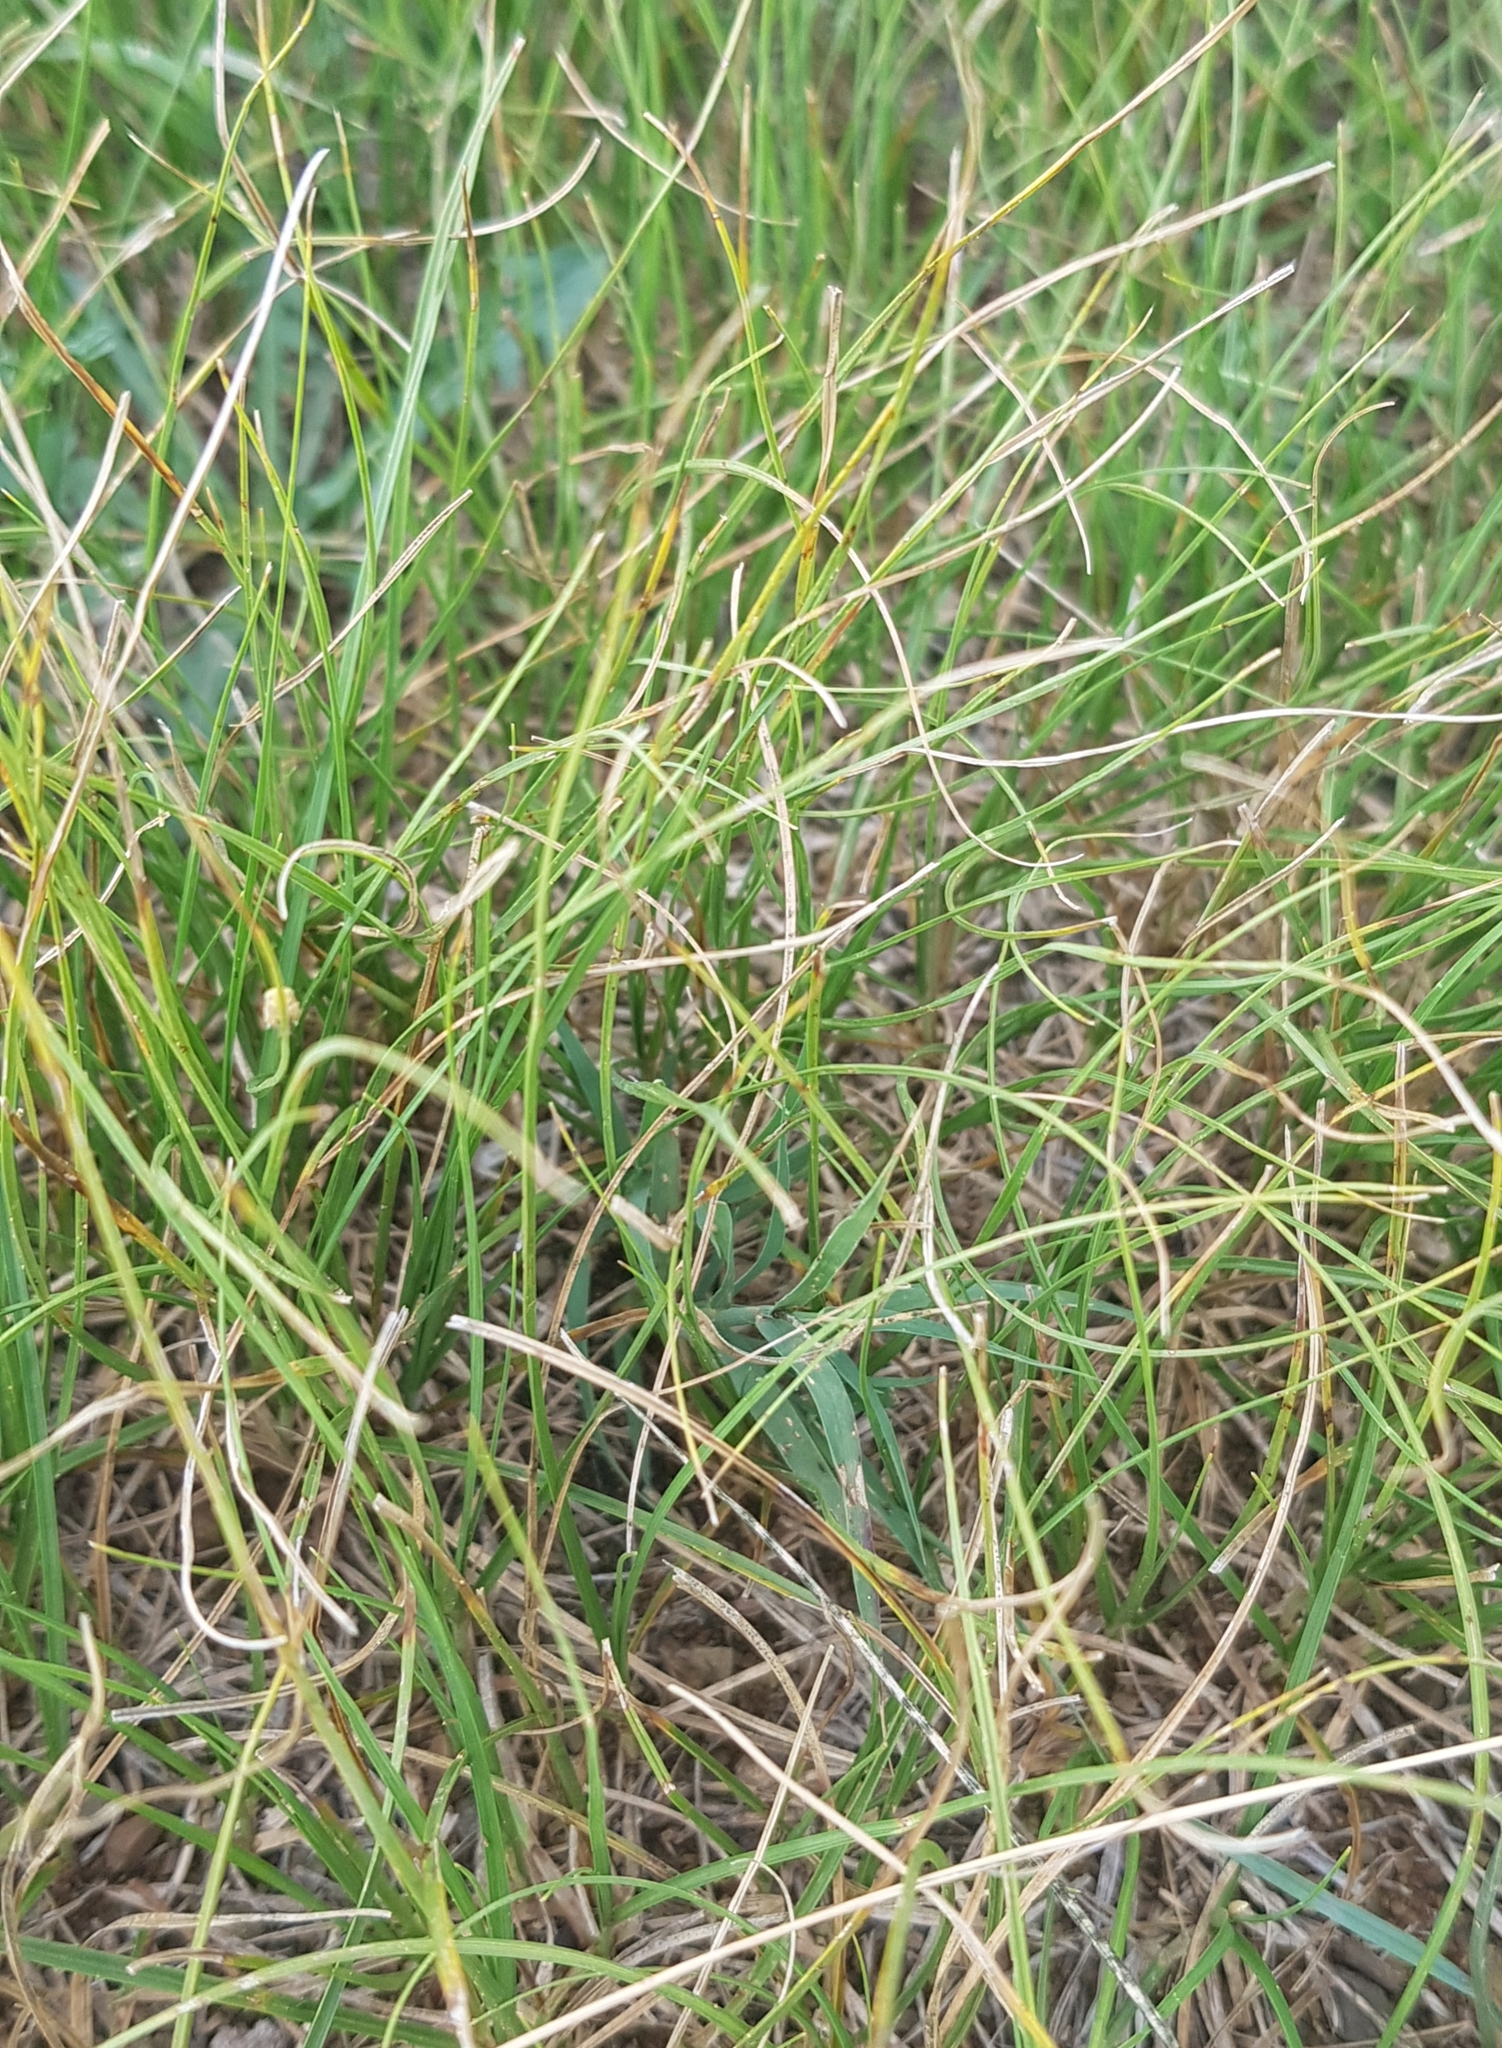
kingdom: Plantae
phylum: Tracheophyta
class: Liliopsida
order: Poales
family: Cyperaceae
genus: Carex
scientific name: Carex duriuscula
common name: Involute-leaved sedge
